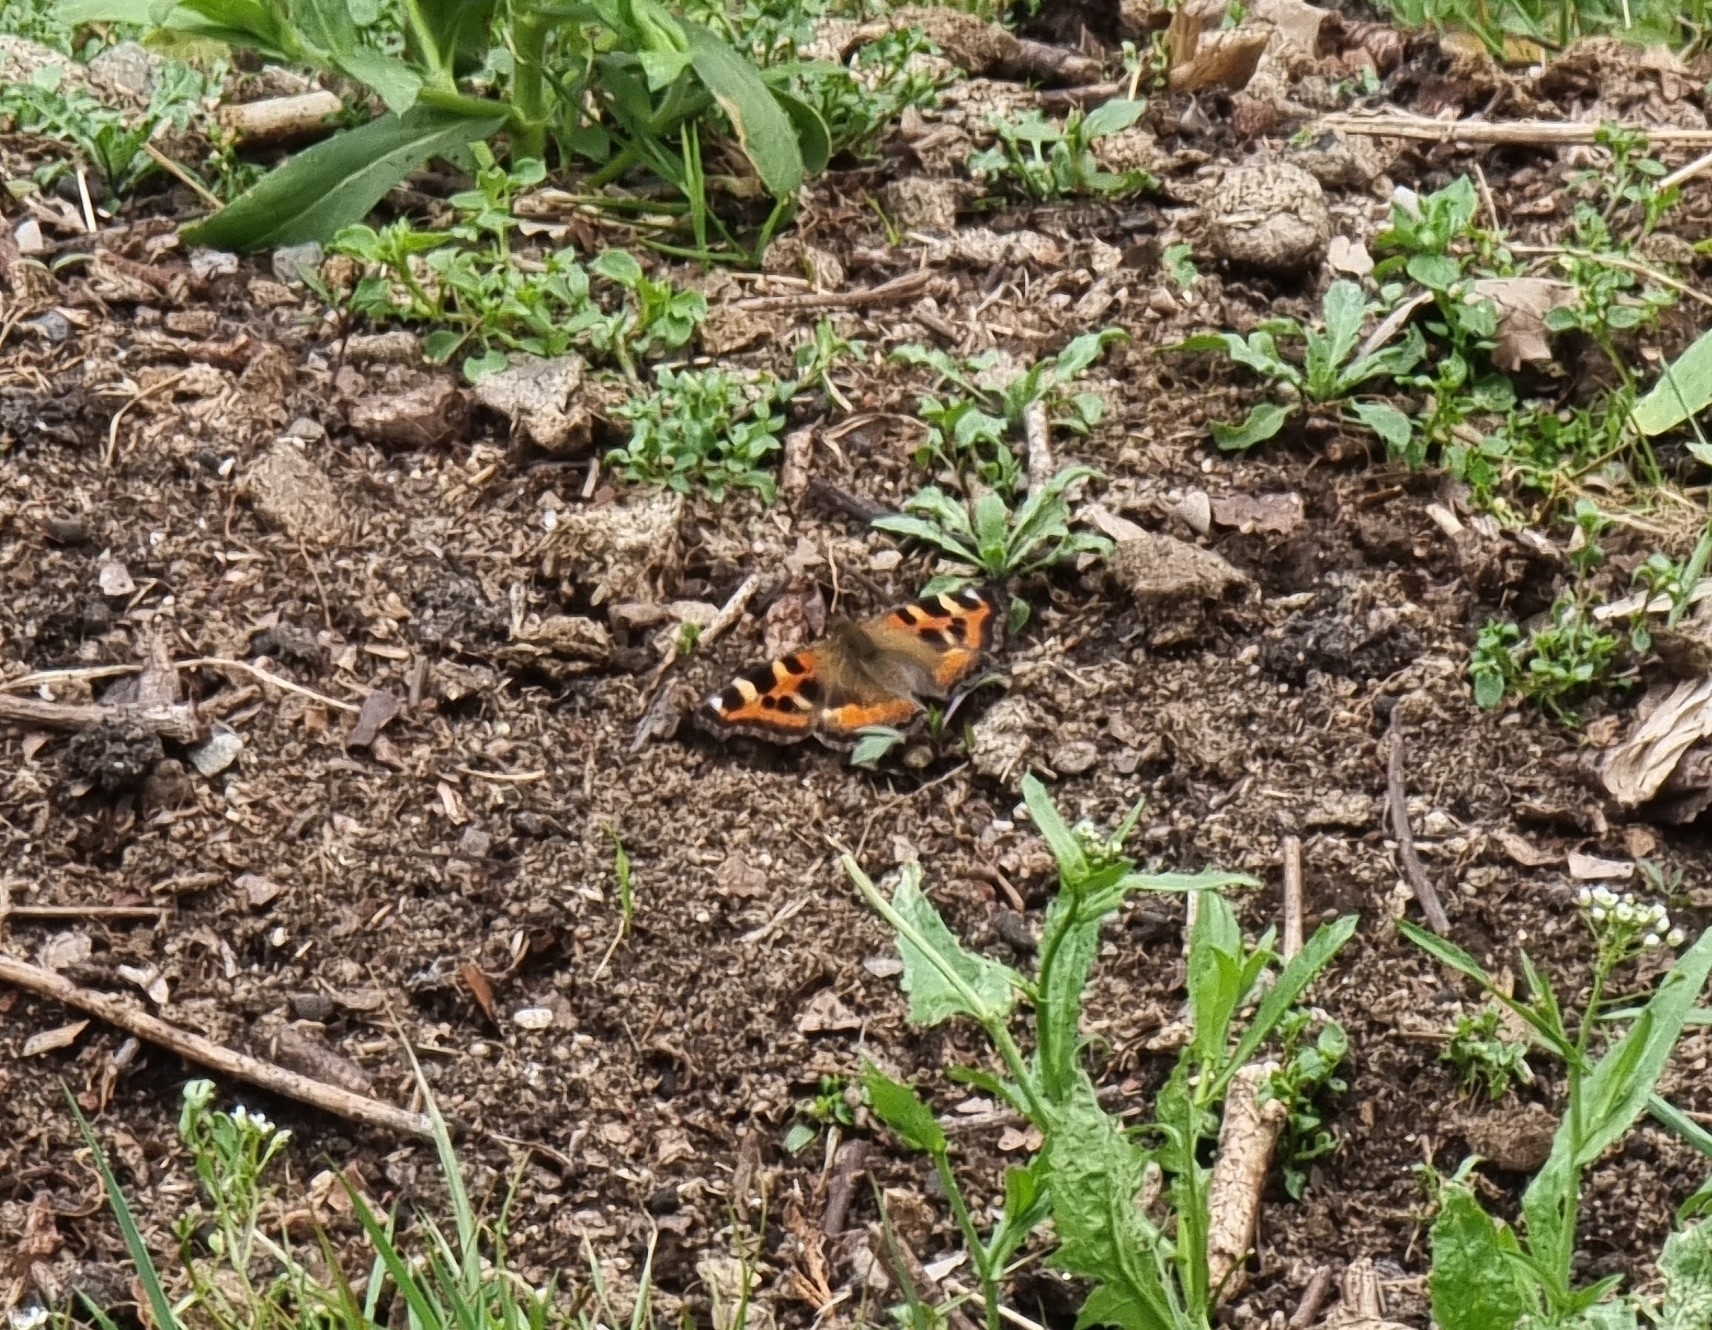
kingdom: Animalia
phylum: Arthropoda
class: Insecta
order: Lepidoptera
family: Nymphalidae
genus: Aglais
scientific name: Aglais caschmirensis
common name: Indian tortoiseshell
